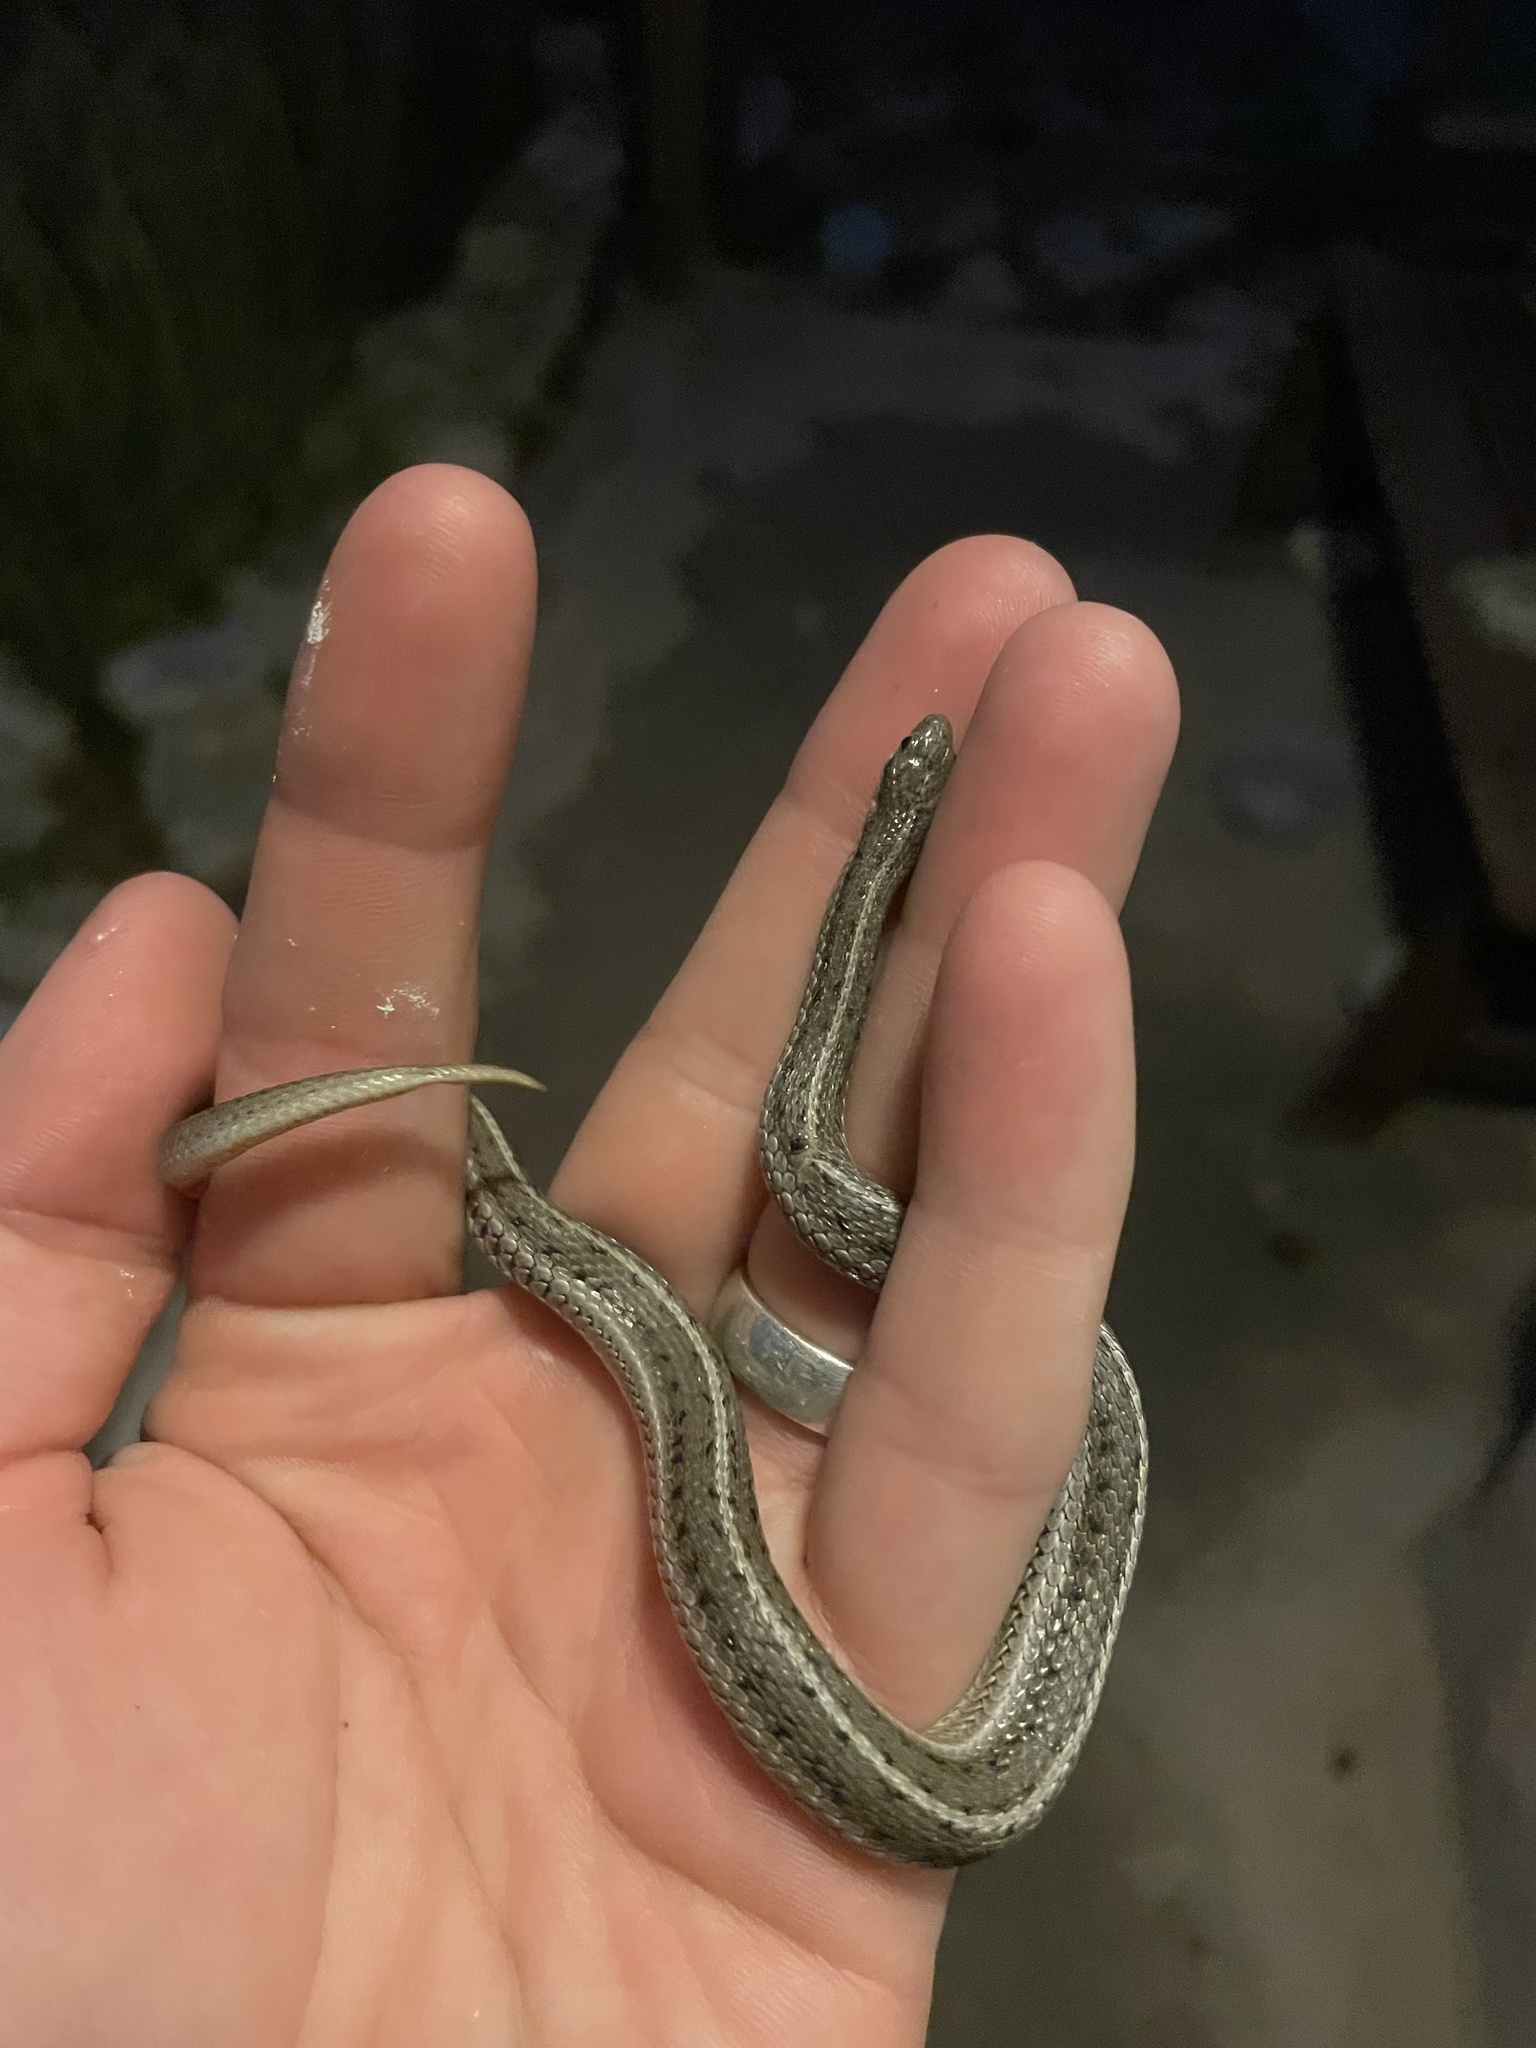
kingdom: Animalia
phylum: Chordata
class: Squamata
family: Colubridae
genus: Tropidoclonion
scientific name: Tropidoclonion lineatum
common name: Lined snake
